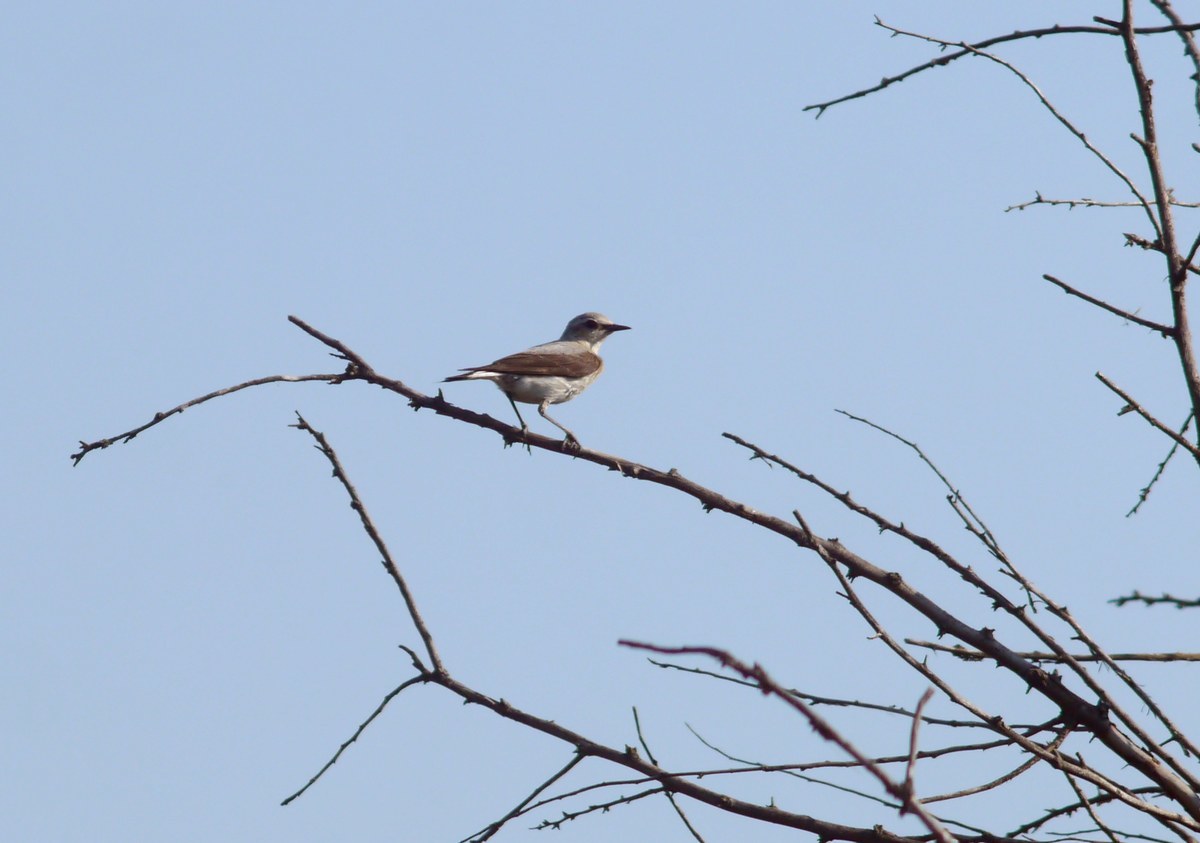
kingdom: Animalia
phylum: Chordata
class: Aves
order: Passeriformes
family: Muscicapidae
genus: Oenanthe
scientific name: Oenanthe oenanthe
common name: Northern wheatear
